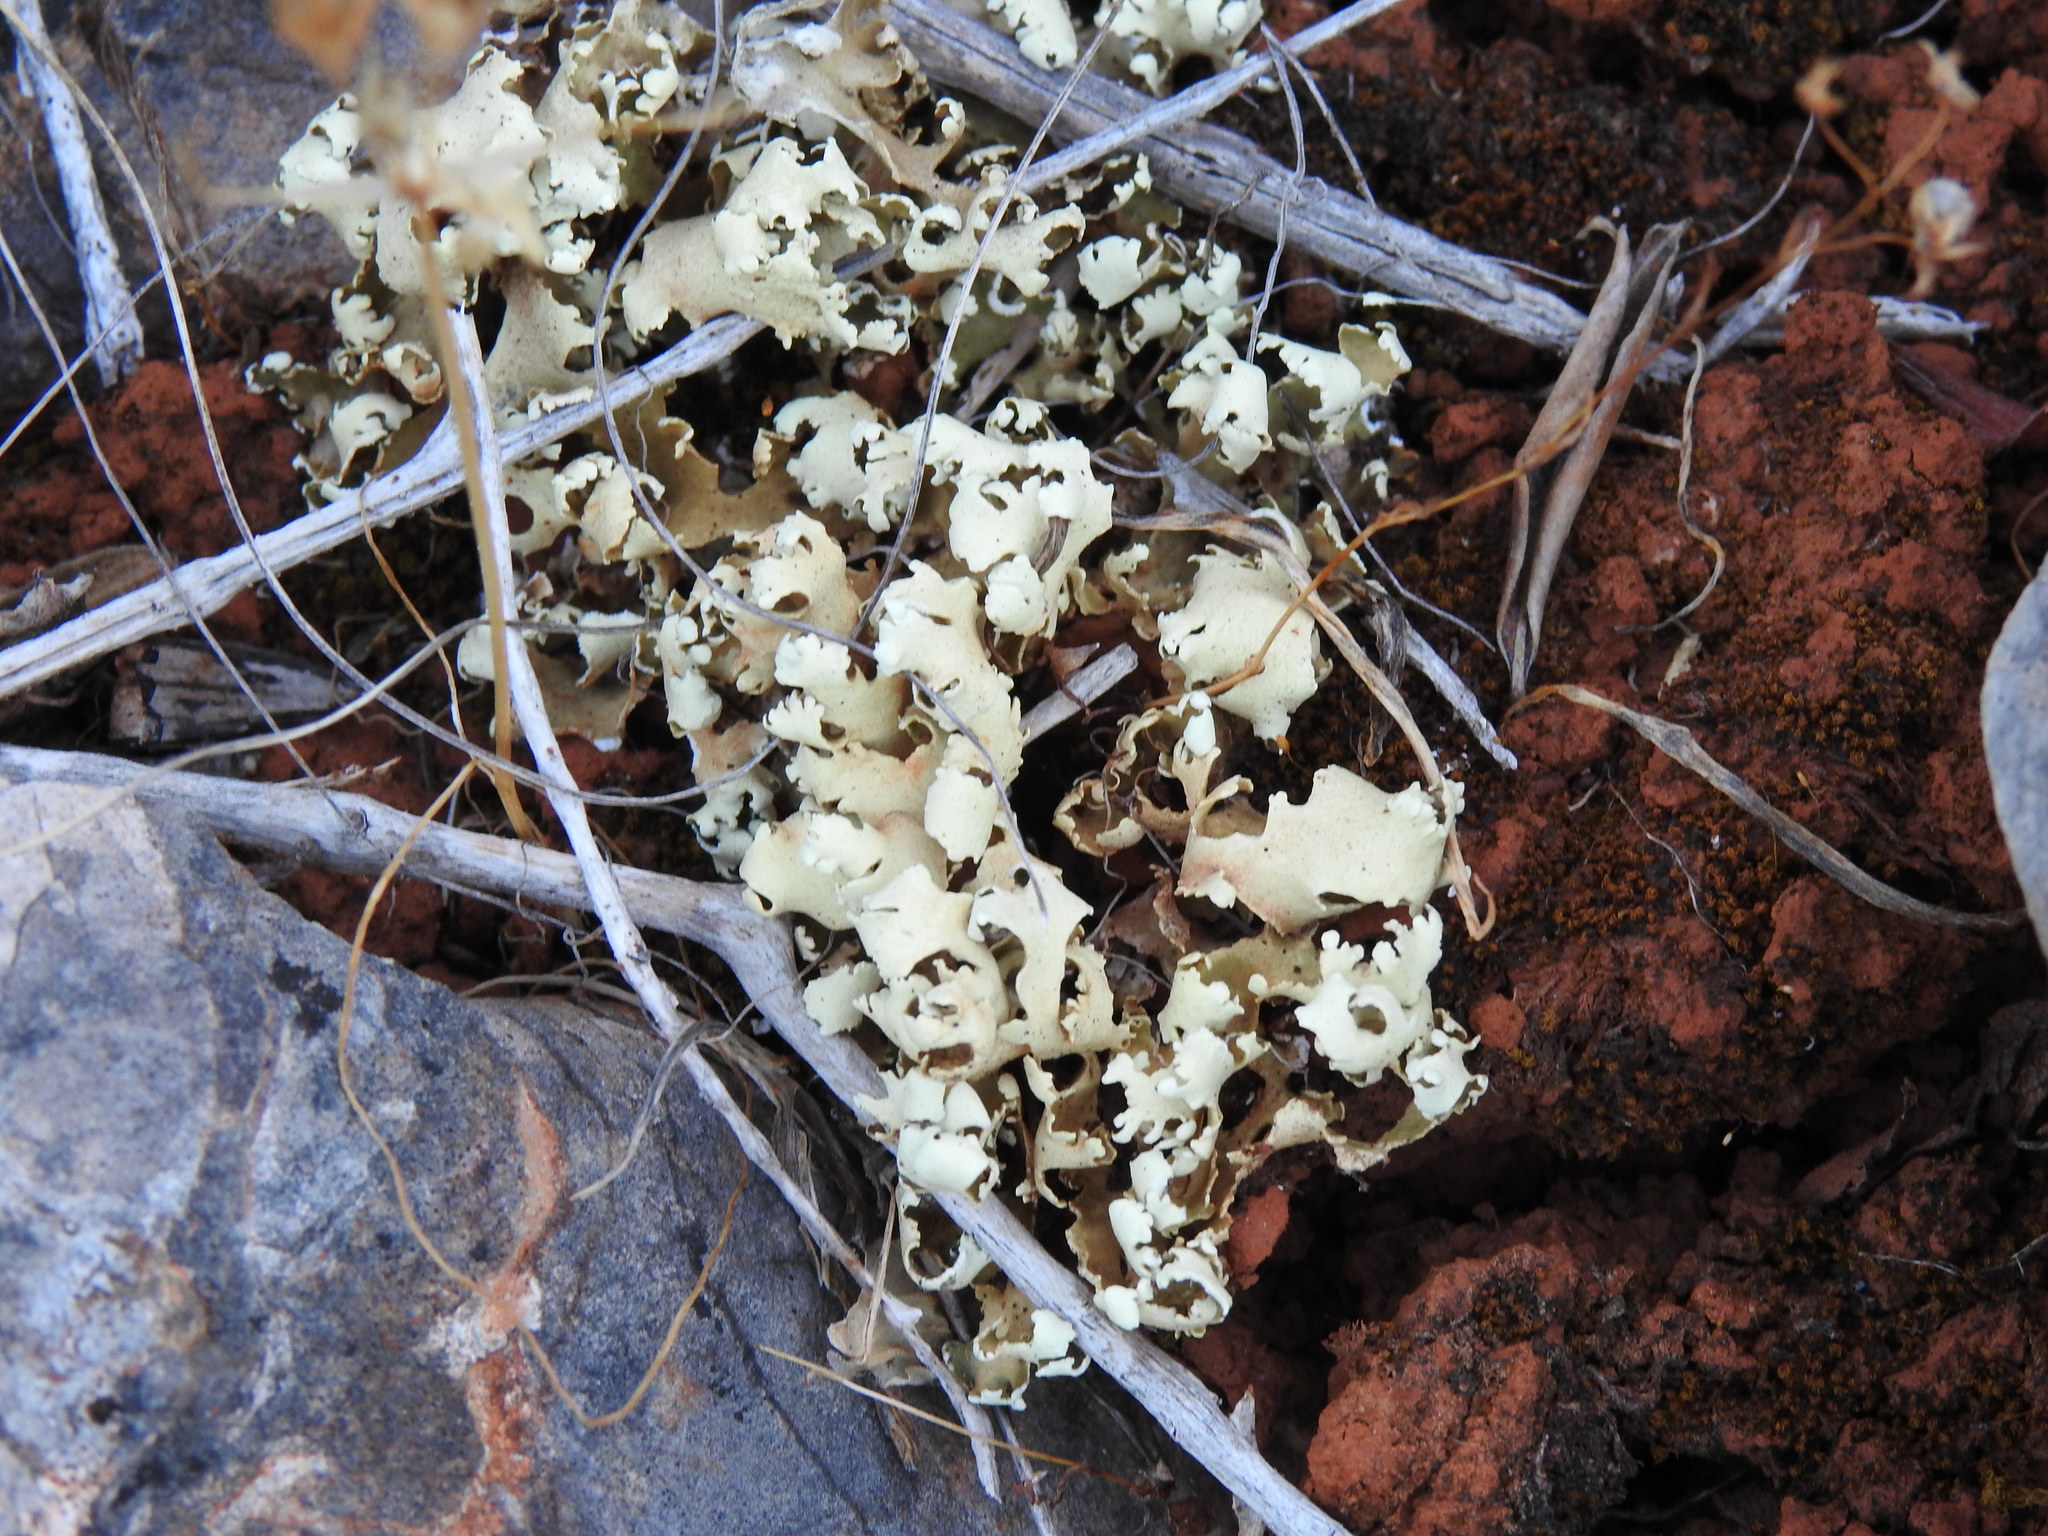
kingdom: Fungi
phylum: Ascomycota
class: Lecanoromycetes
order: Lecanorales
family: Cladoniaceae
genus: Cladonia
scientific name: Cladonia foliacea
